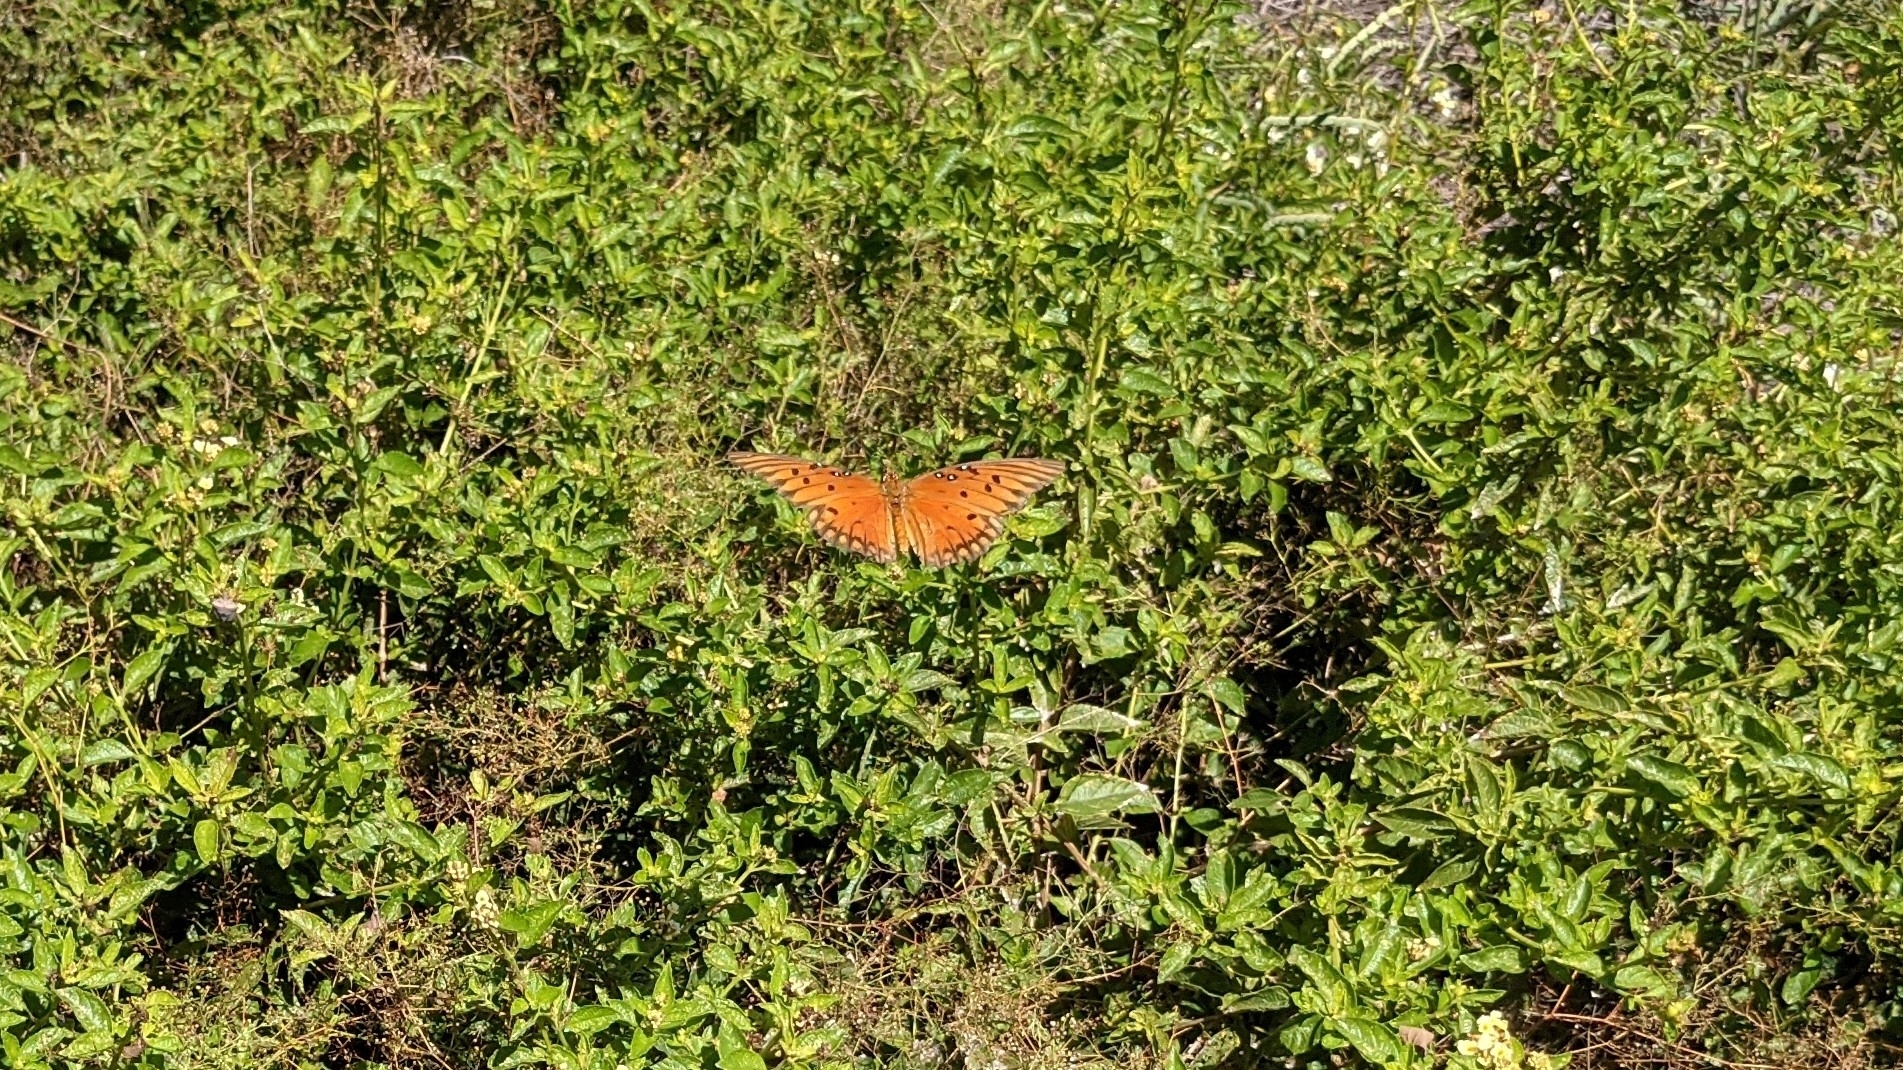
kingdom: Animalia
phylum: Arthropoda
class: Insecta
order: Lepidoptera
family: Nymphalidae
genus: Dione
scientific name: Dione vanillae
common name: Gulf fritillary
